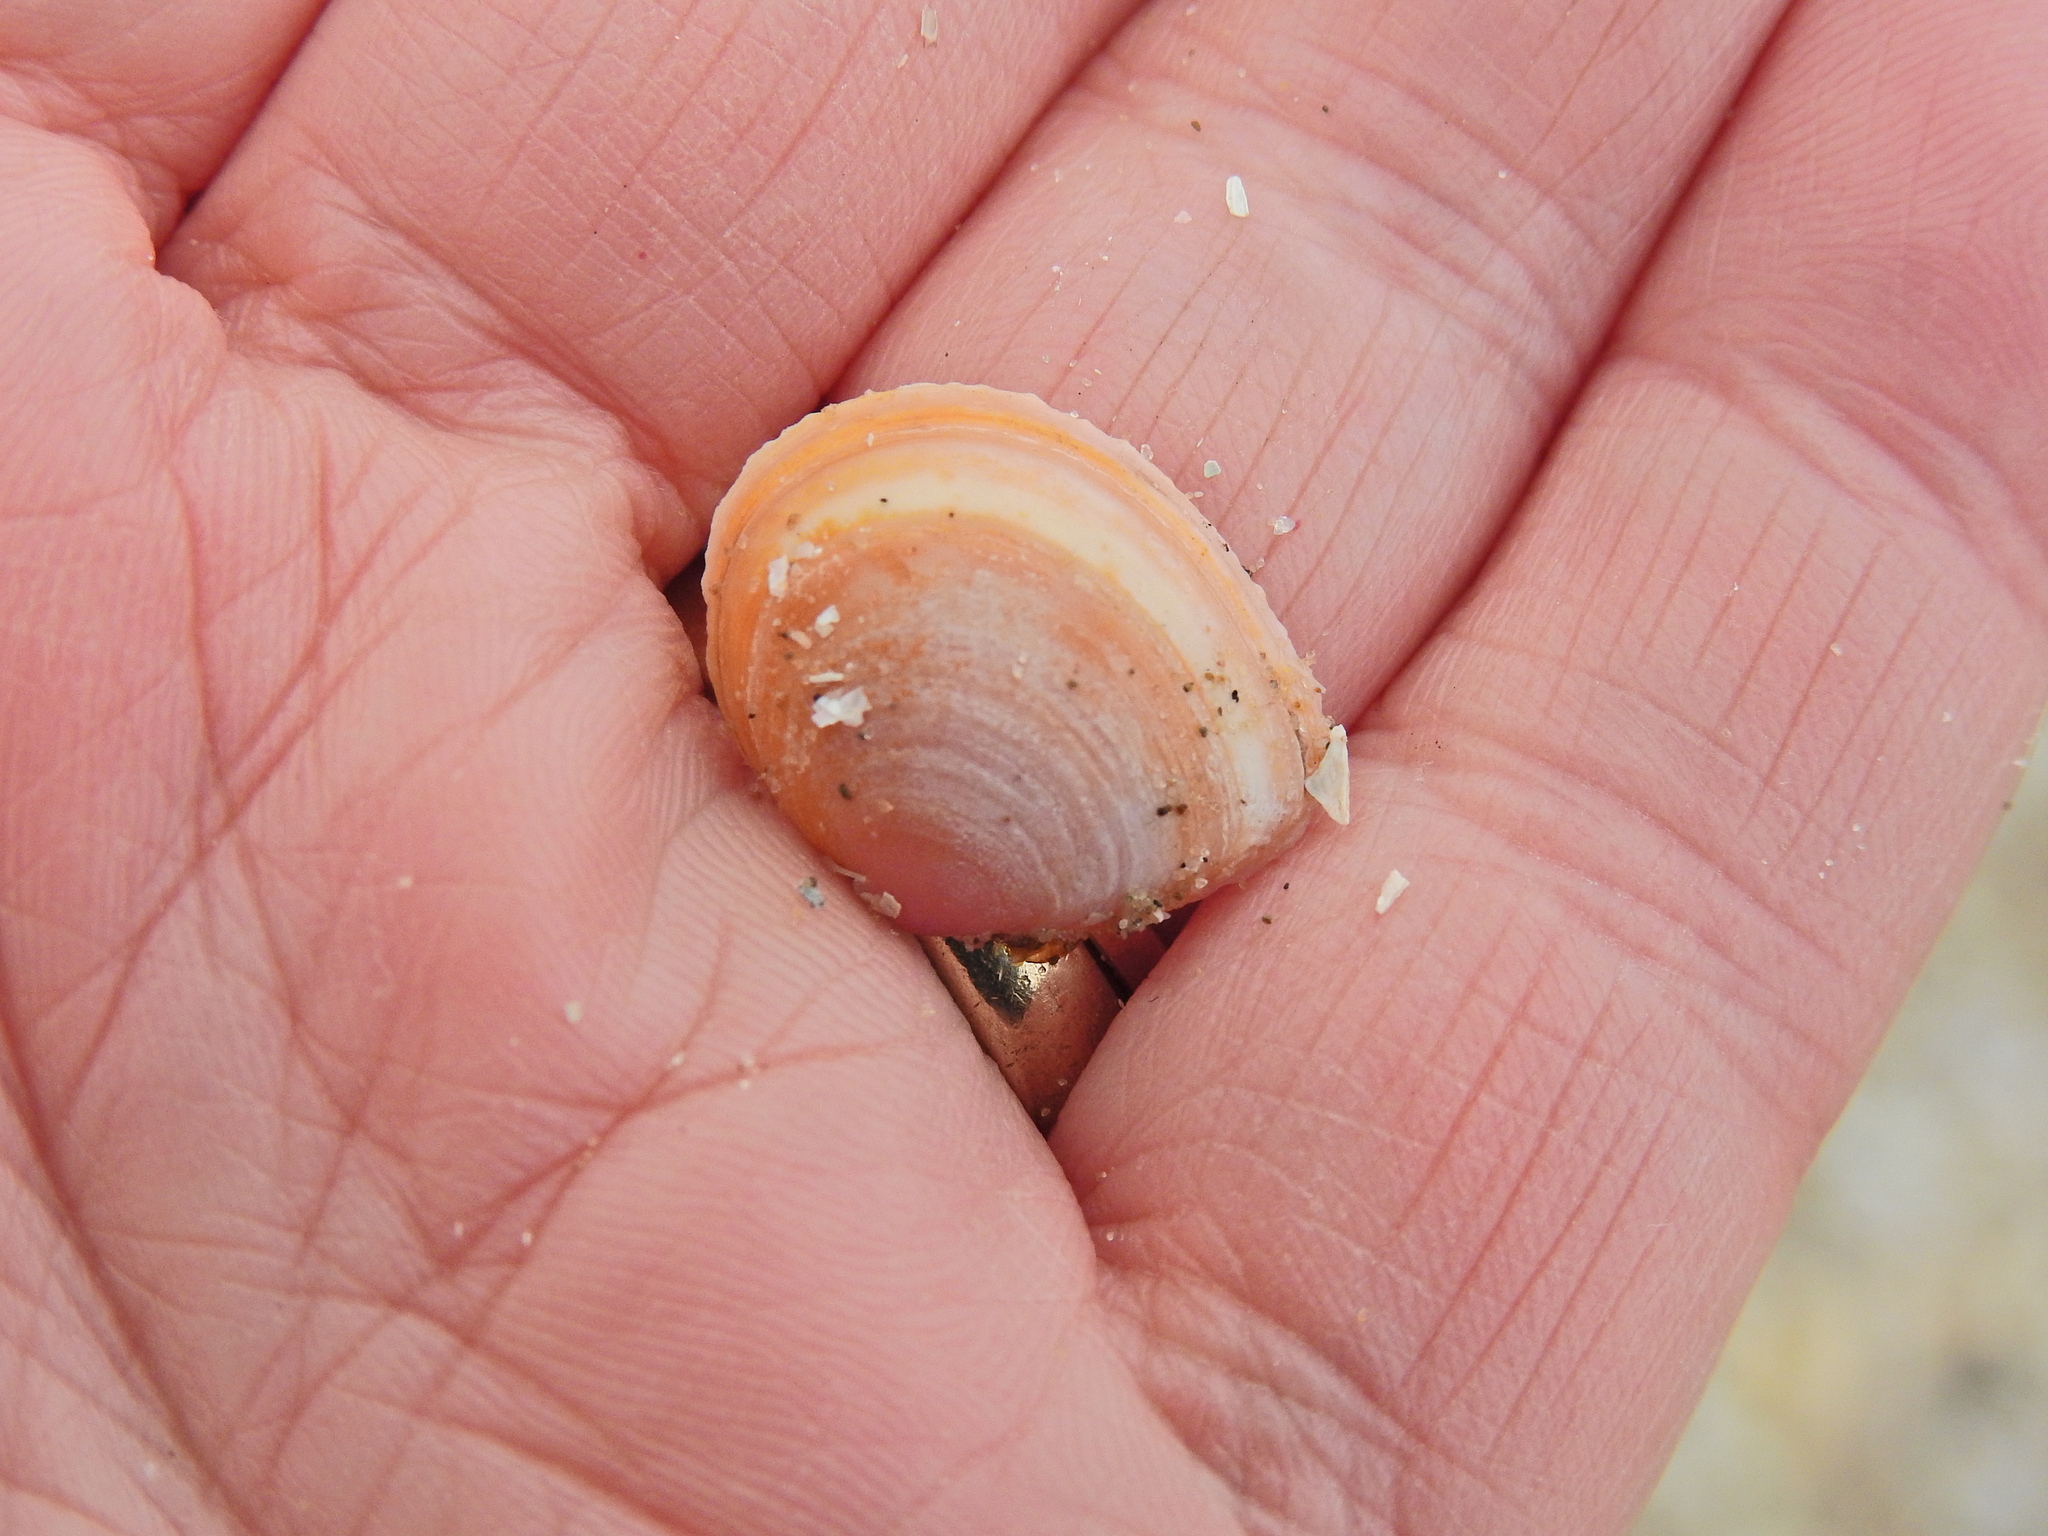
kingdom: Animalia
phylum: Mollusca
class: Bivalvia
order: Cardiida
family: Tellinidae
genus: Macoma
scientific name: Macoma balthica
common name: Baltic tellin
